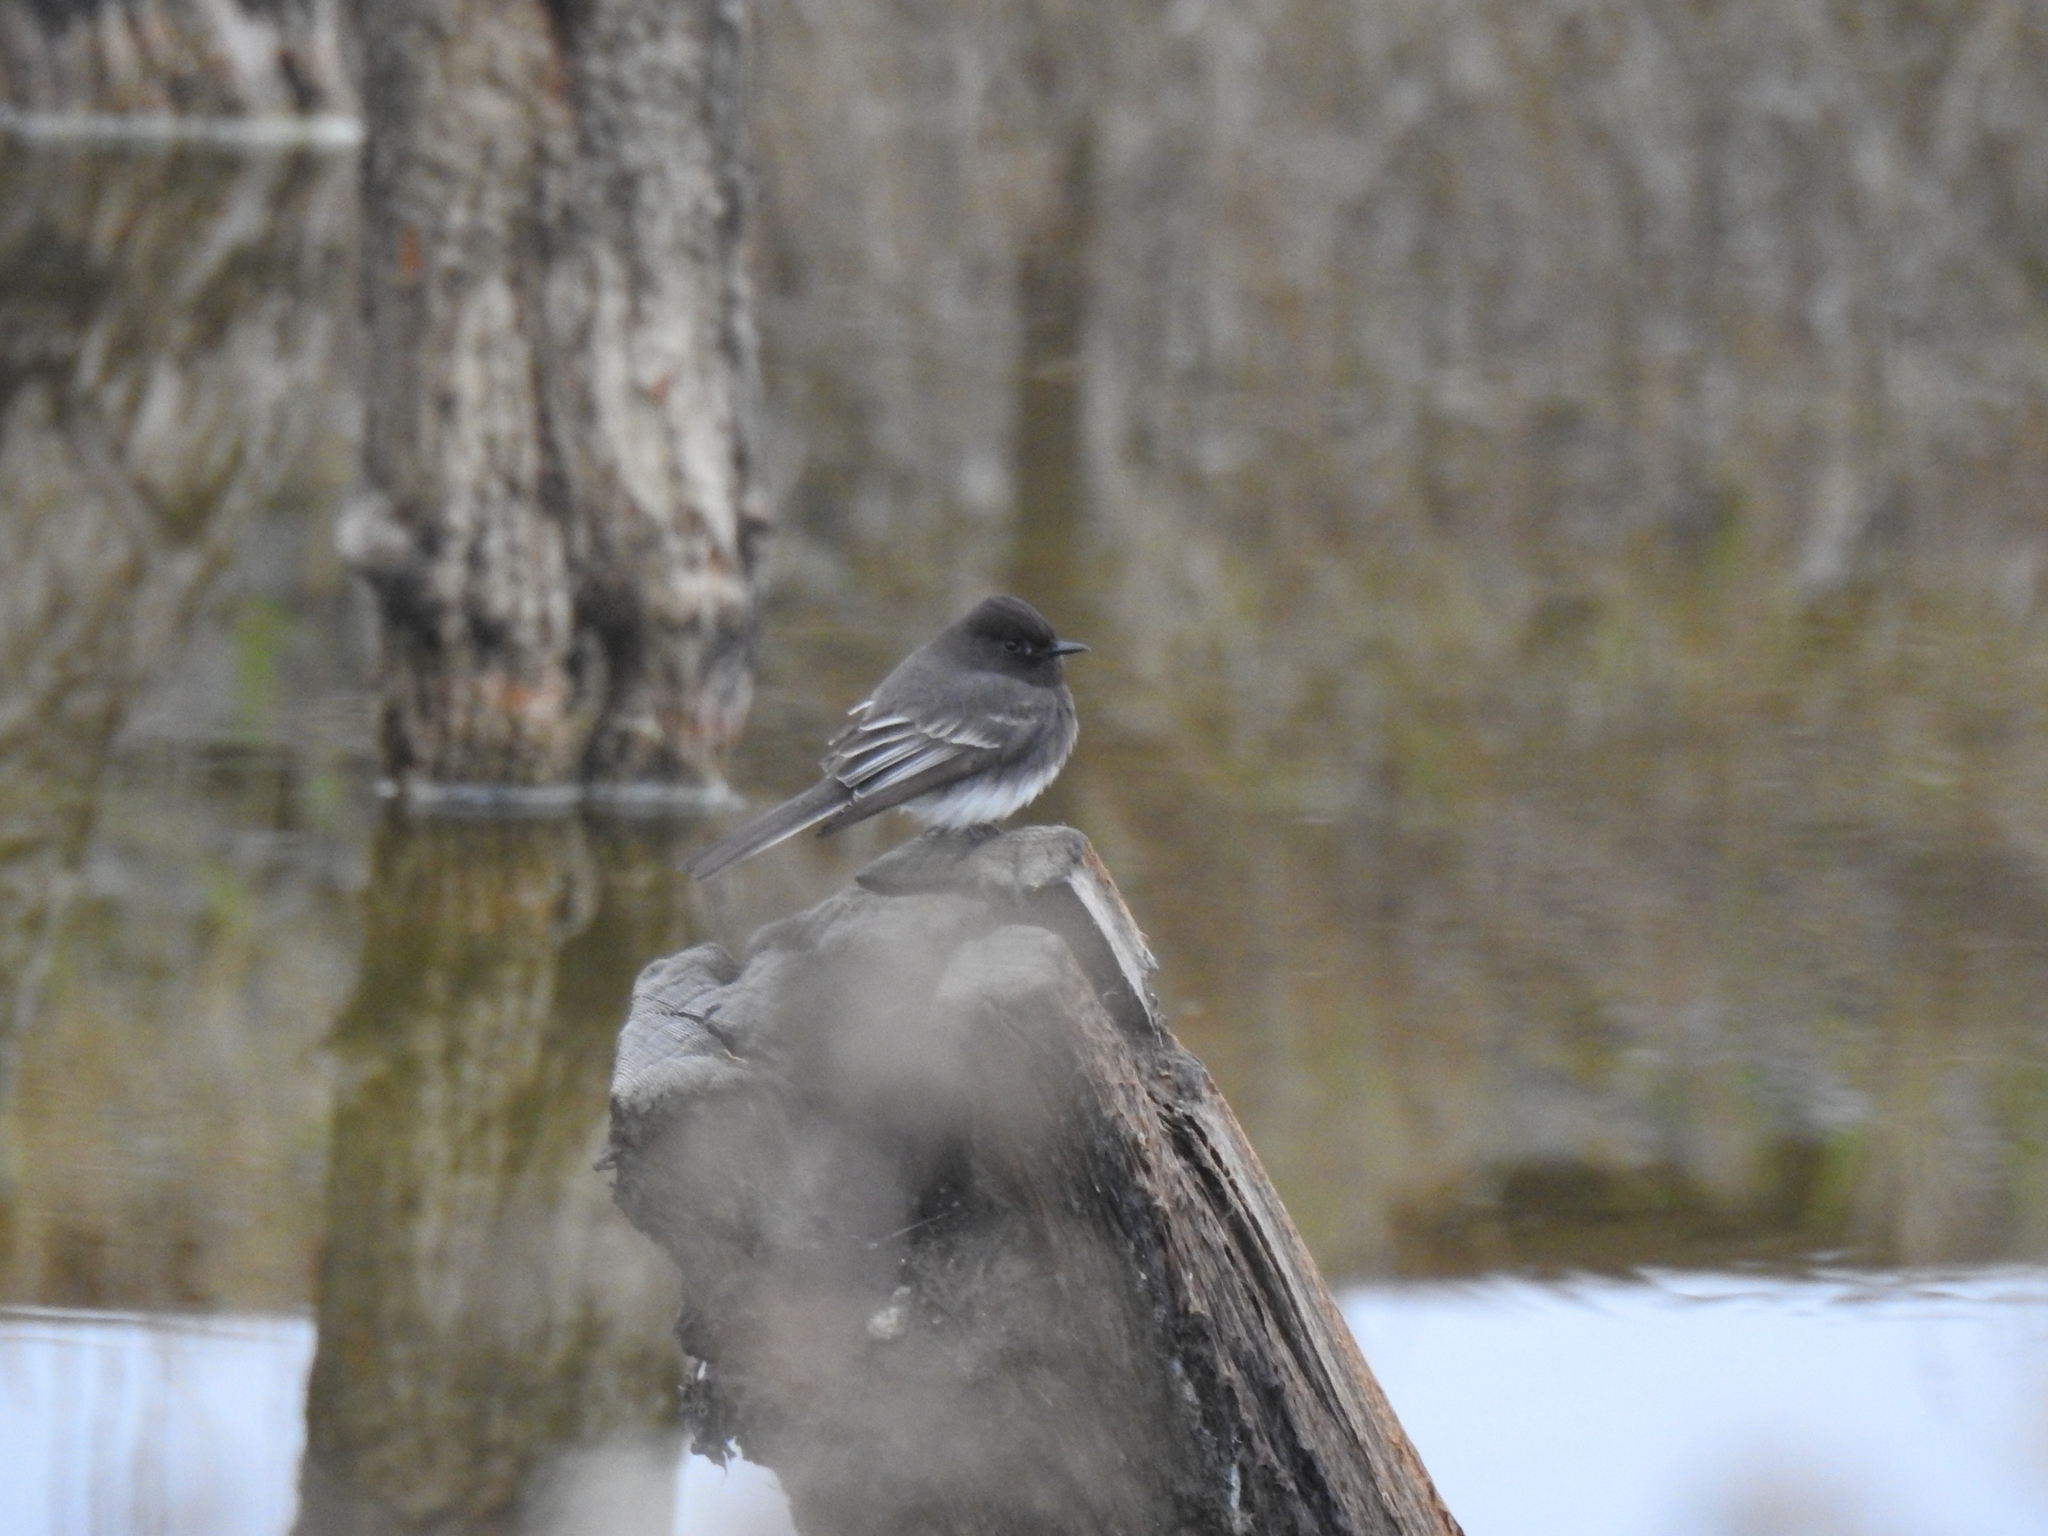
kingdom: Animalia
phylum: Chordata
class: Aves
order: Passeriformes
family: Tyrannidae
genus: Sayornis
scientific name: Sayornis nigricans
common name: Black phoebe
